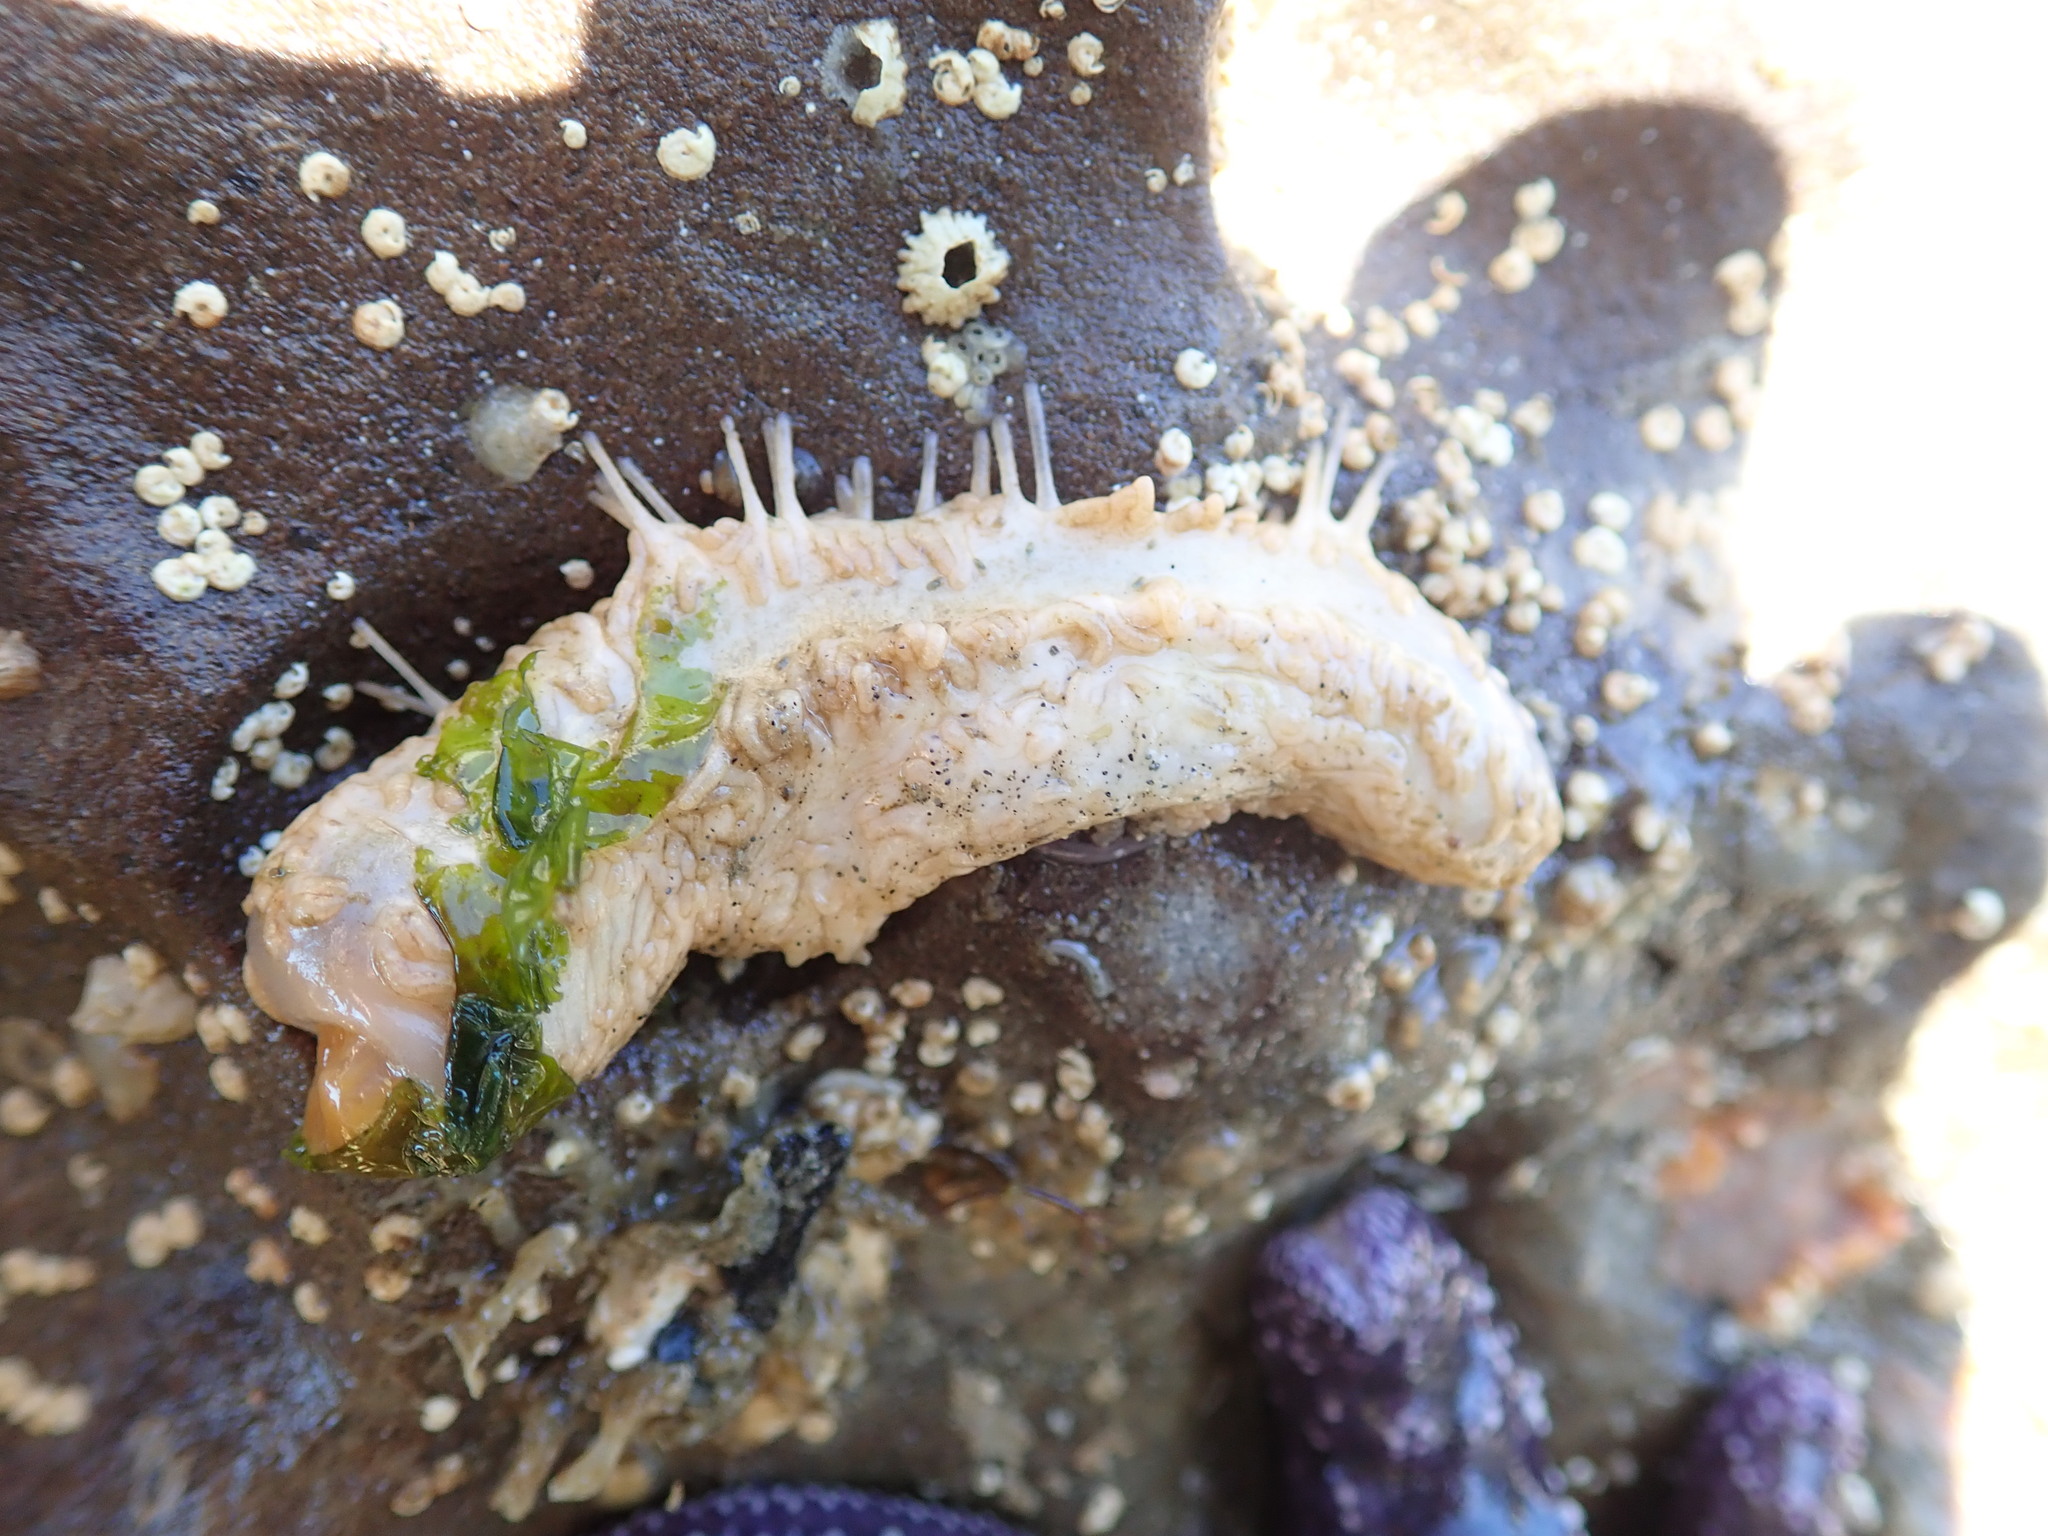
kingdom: Animalia
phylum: Echinodermata
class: Holothuroidea
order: Dendrochirotida
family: Sclerodactylidae
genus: Eupentacta
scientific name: Eupentacta quinquesemita
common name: Pentamerous sea cucumber
